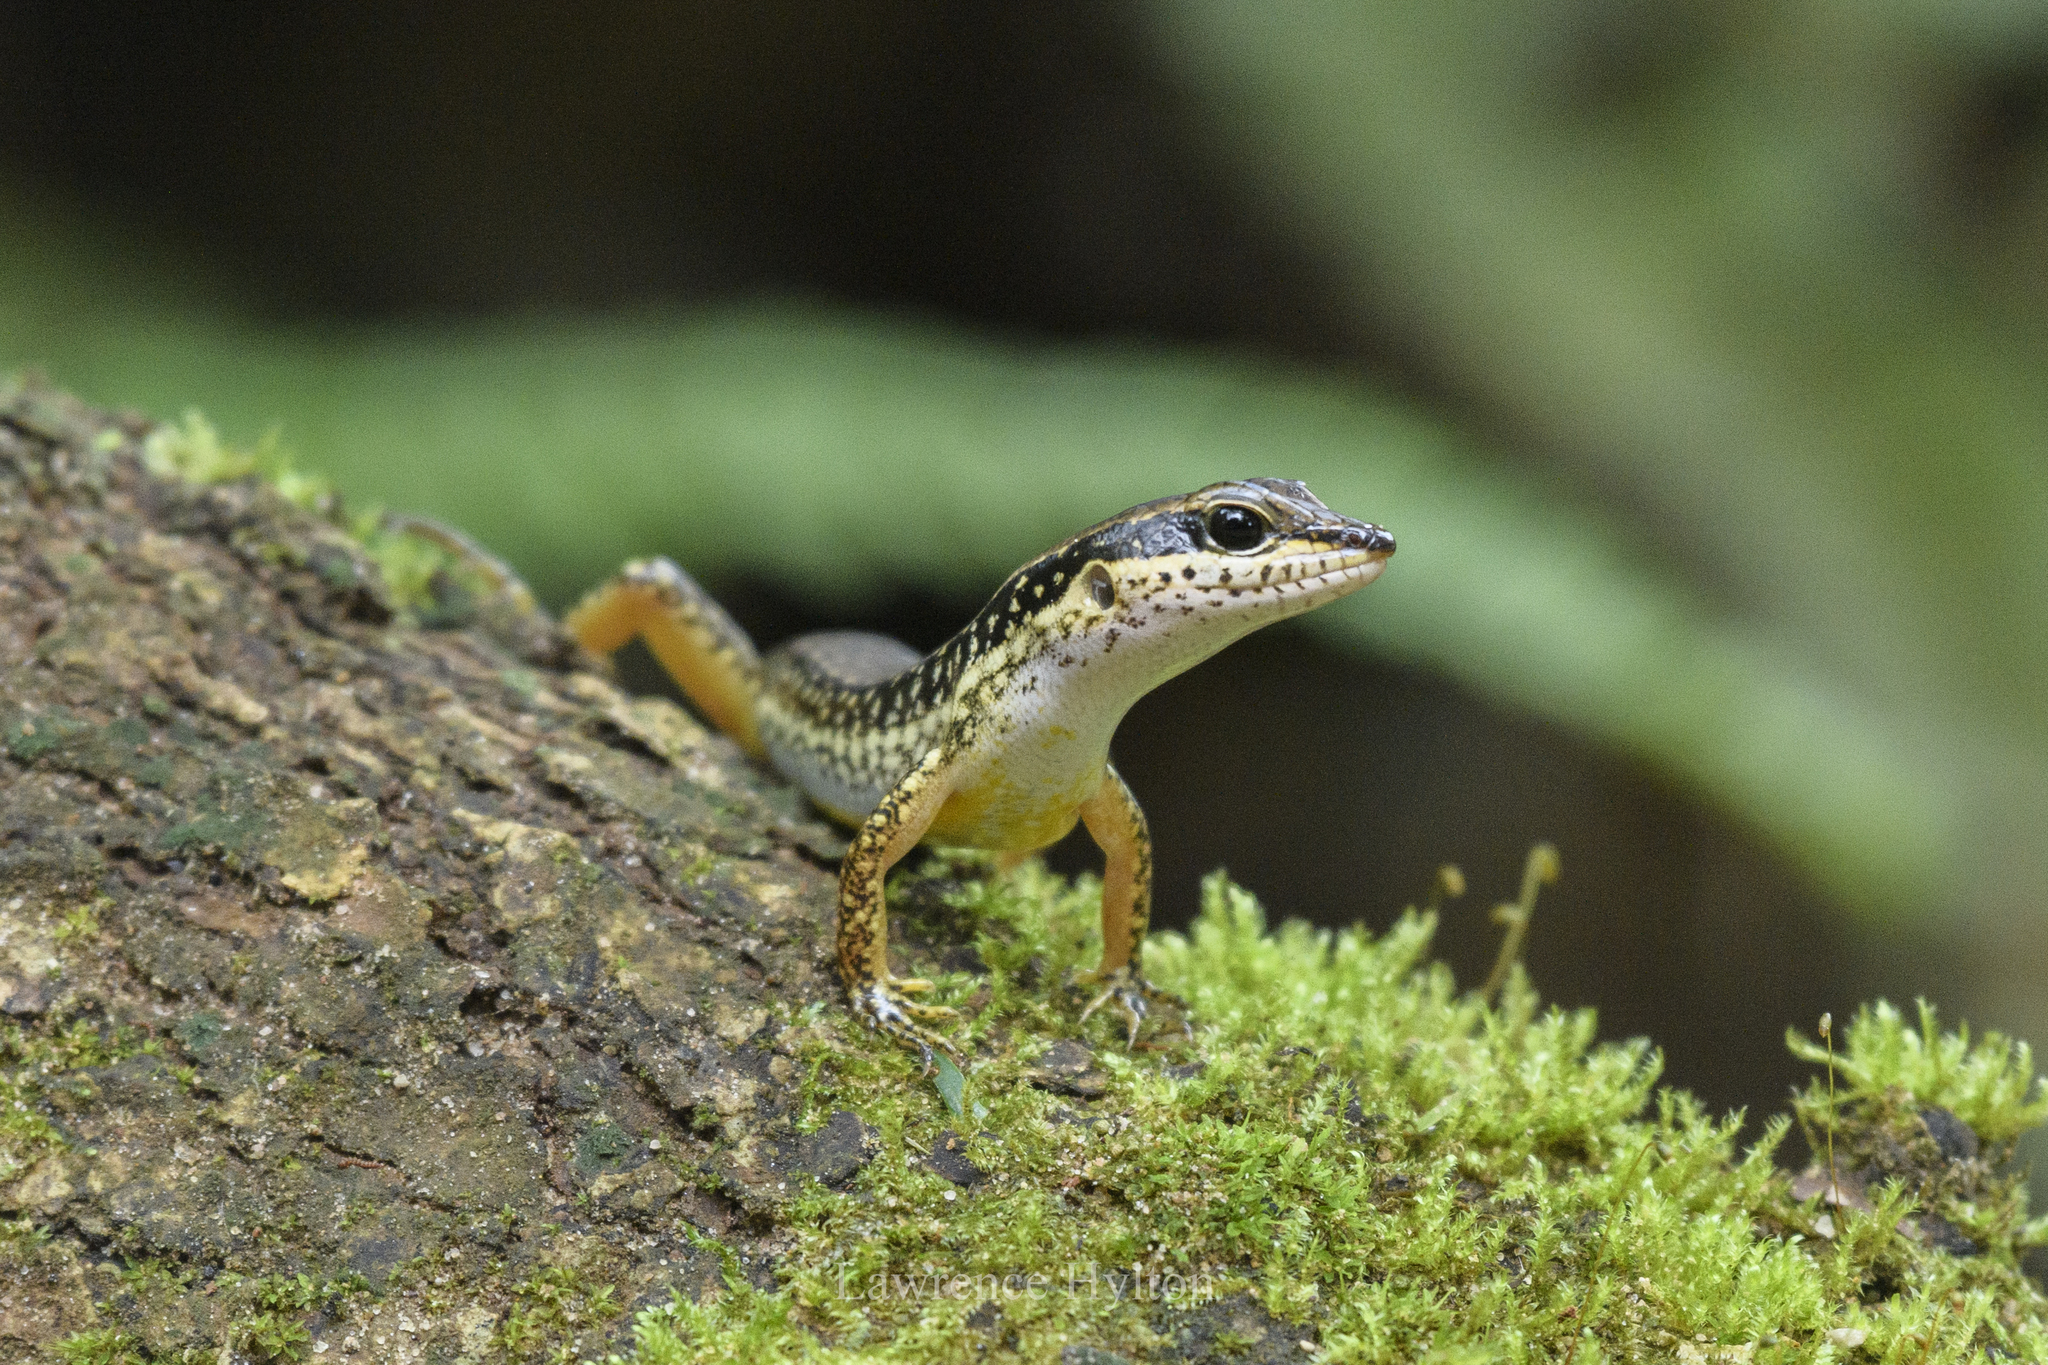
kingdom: Animalia
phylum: Chordata
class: Squamata
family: Scincidae
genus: Sphenomorphus
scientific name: Sphenomorphus maculatus
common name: Maculated forest skink
